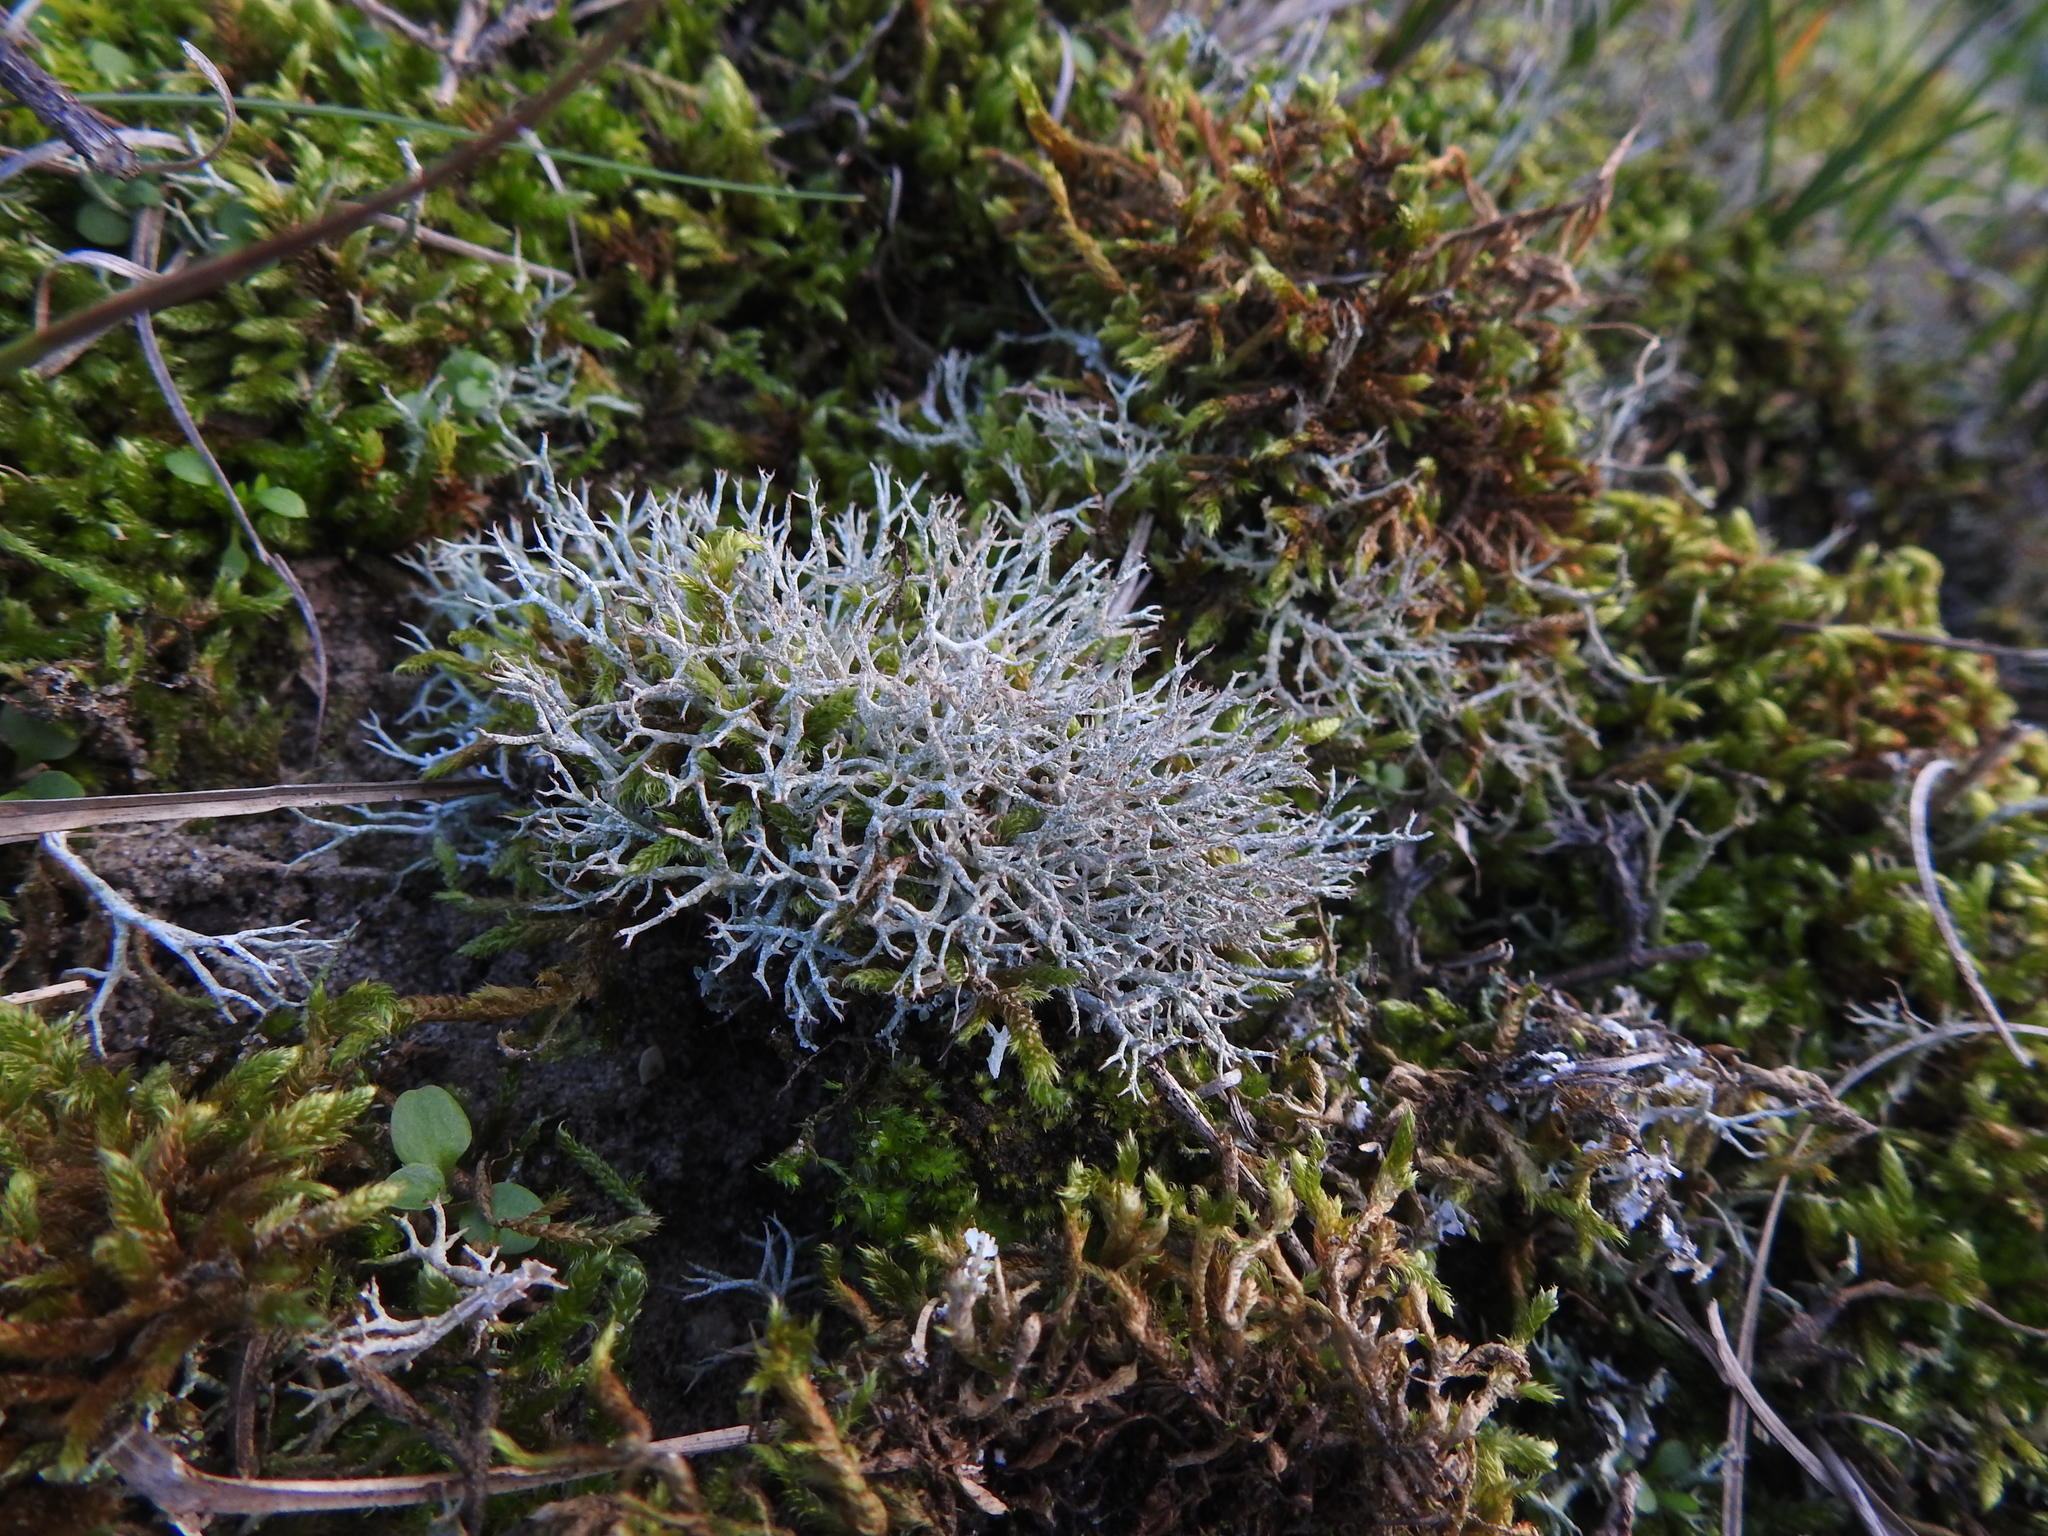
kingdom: Fungi
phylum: Ascomycota
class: Lecanoromycetes
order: Lecanorales
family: Cladoniaceae
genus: Cladonia
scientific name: Cladonia rangiformis
